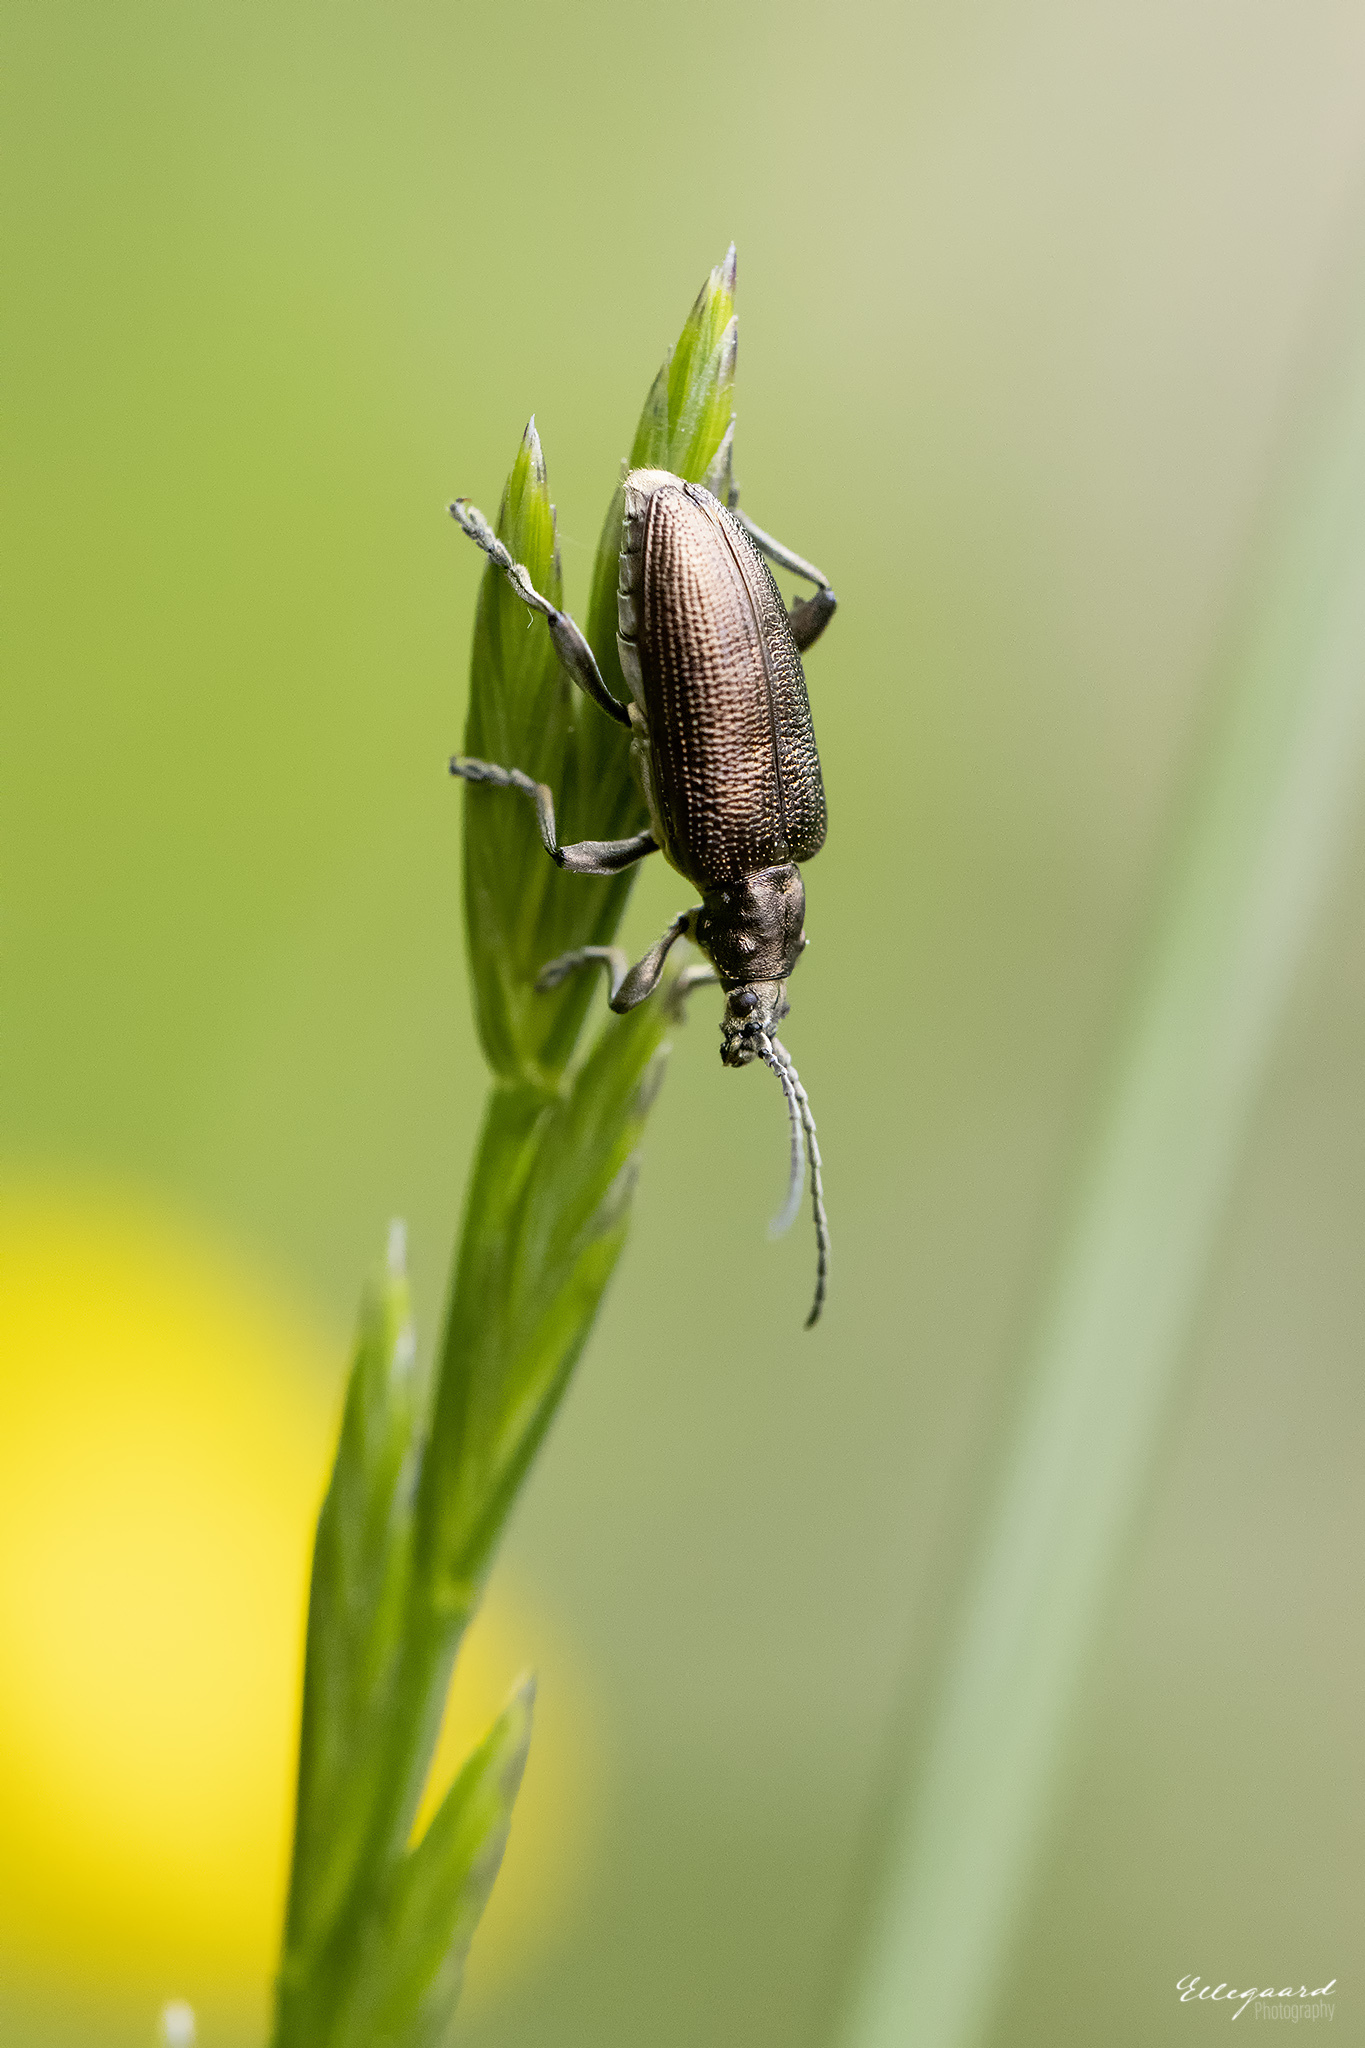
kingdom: Animalia
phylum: Arthropoda
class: Insecta
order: Coleoptera
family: Chrysomelidae
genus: Plateumaris
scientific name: Plateumaris sericea
